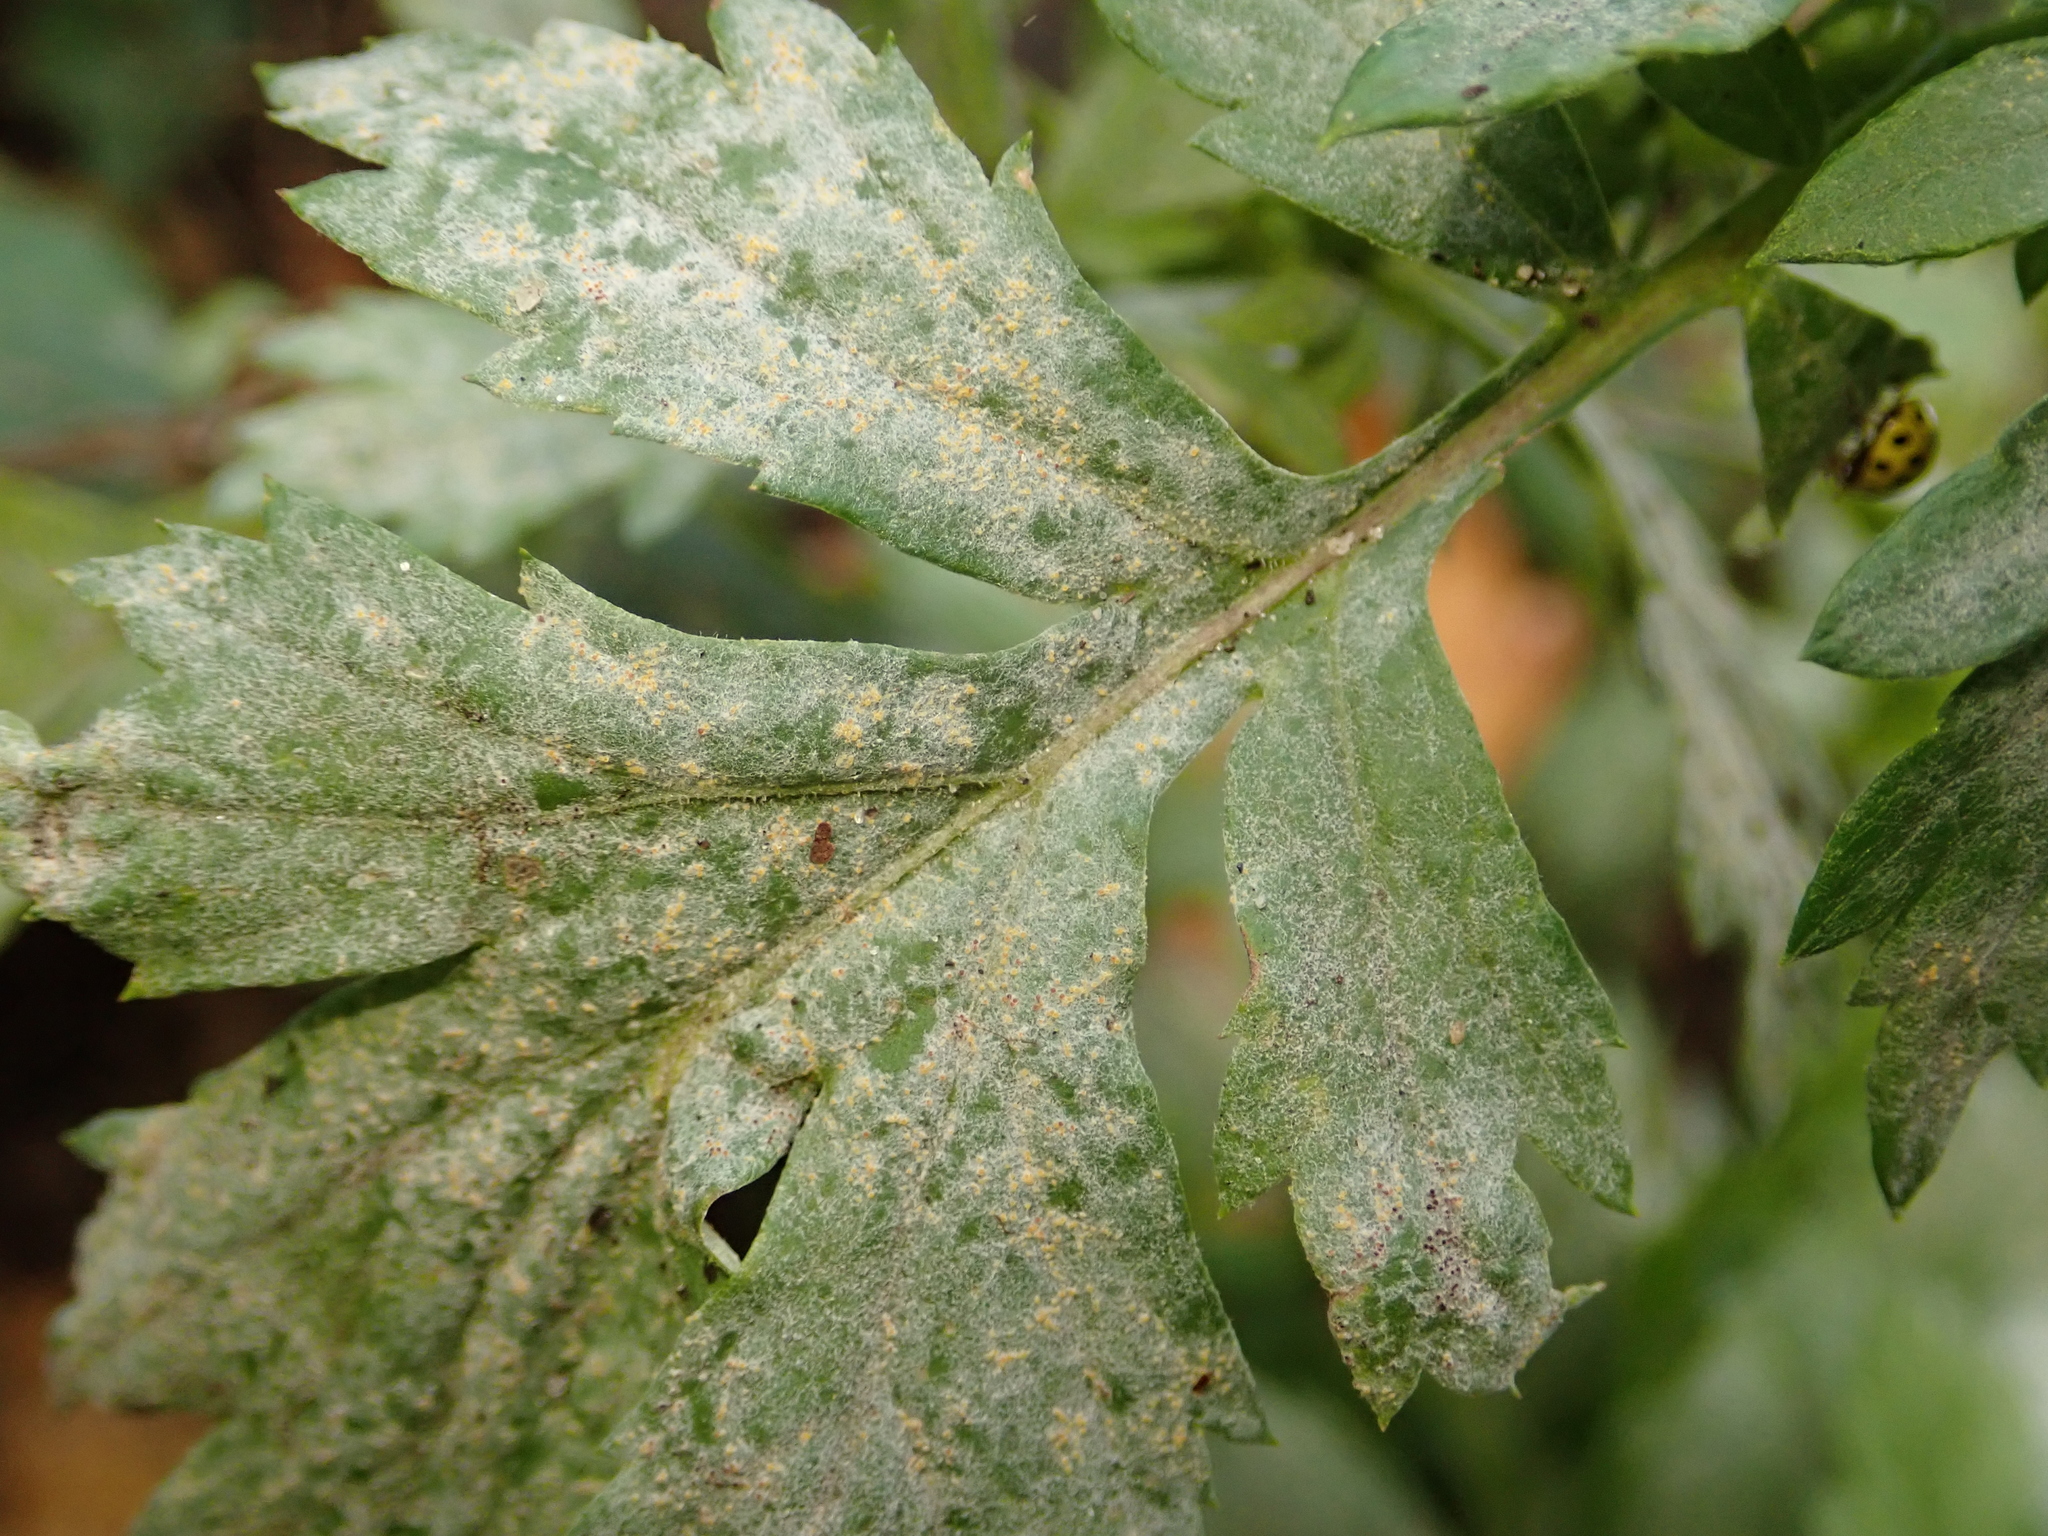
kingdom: Fungi
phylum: Ascomycota
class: Leotiomycetes
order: Helotiales
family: Erysiphaceae
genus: Golovinomyces
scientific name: Golovinomyces artemisiae
